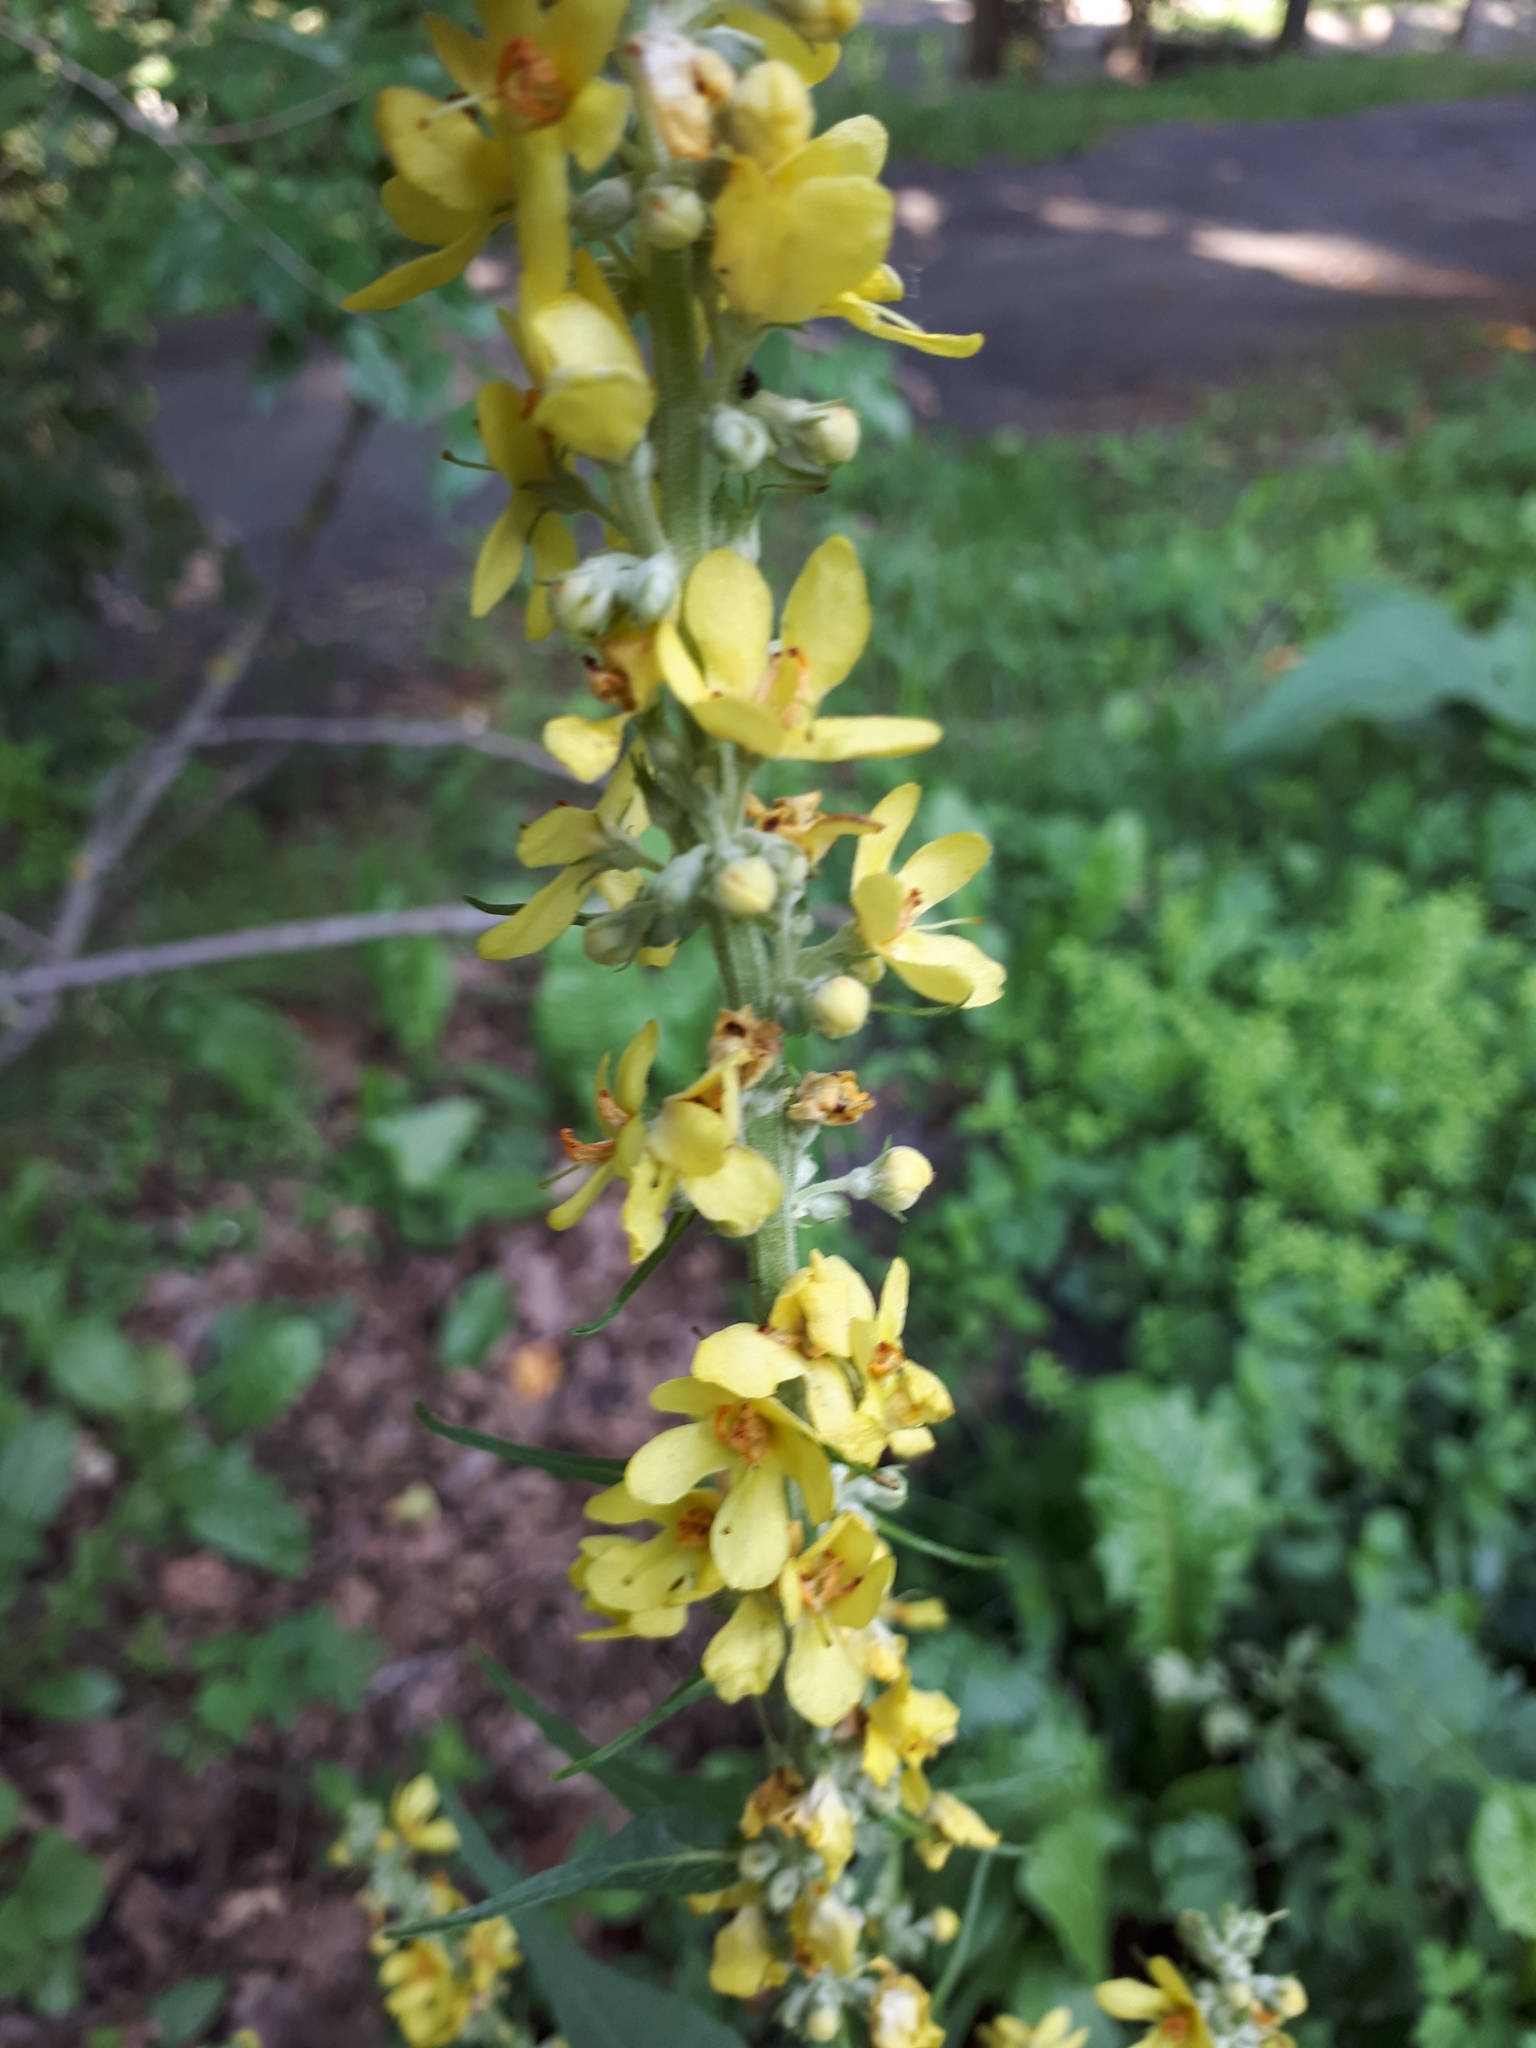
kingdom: Plantae
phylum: Tracheophyta
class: Magnoliopsida
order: Lamiales
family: Scrophulariaceae
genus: Verbascum
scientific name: Verbascum lychnitis
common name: White mullein
